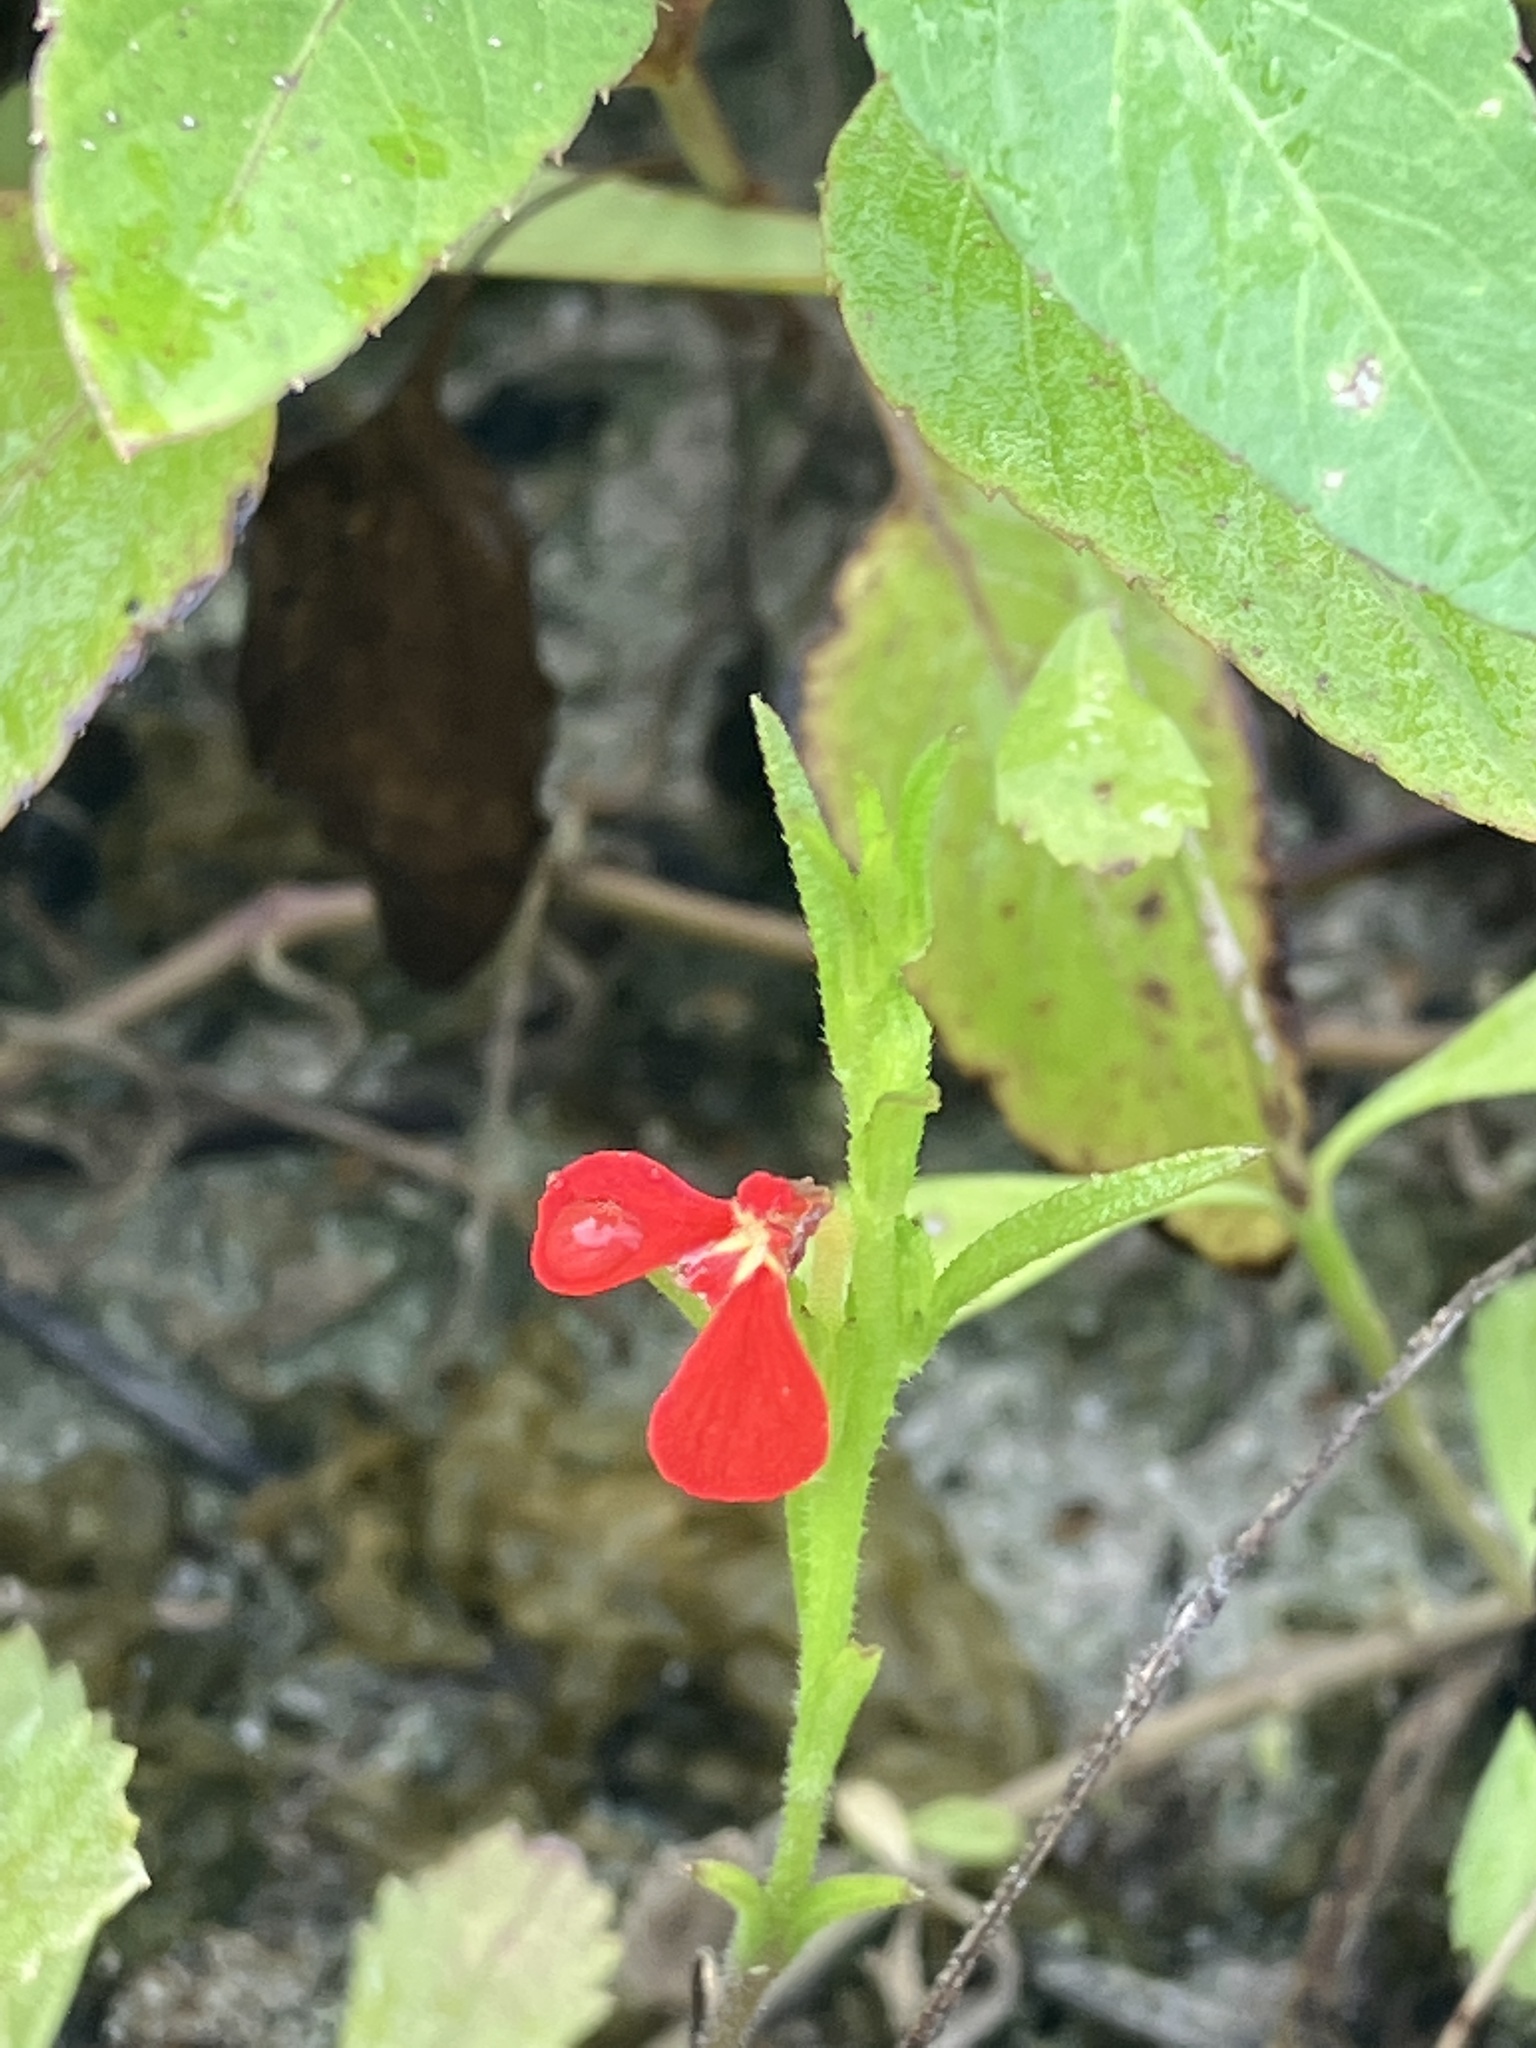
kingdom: Plantae
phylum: Tracheophyta
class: Magnoliopsida
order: Lamiales
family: Orobanchaceae
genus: Striga
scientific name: Striga asiatica
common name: Asiatic witchweed
